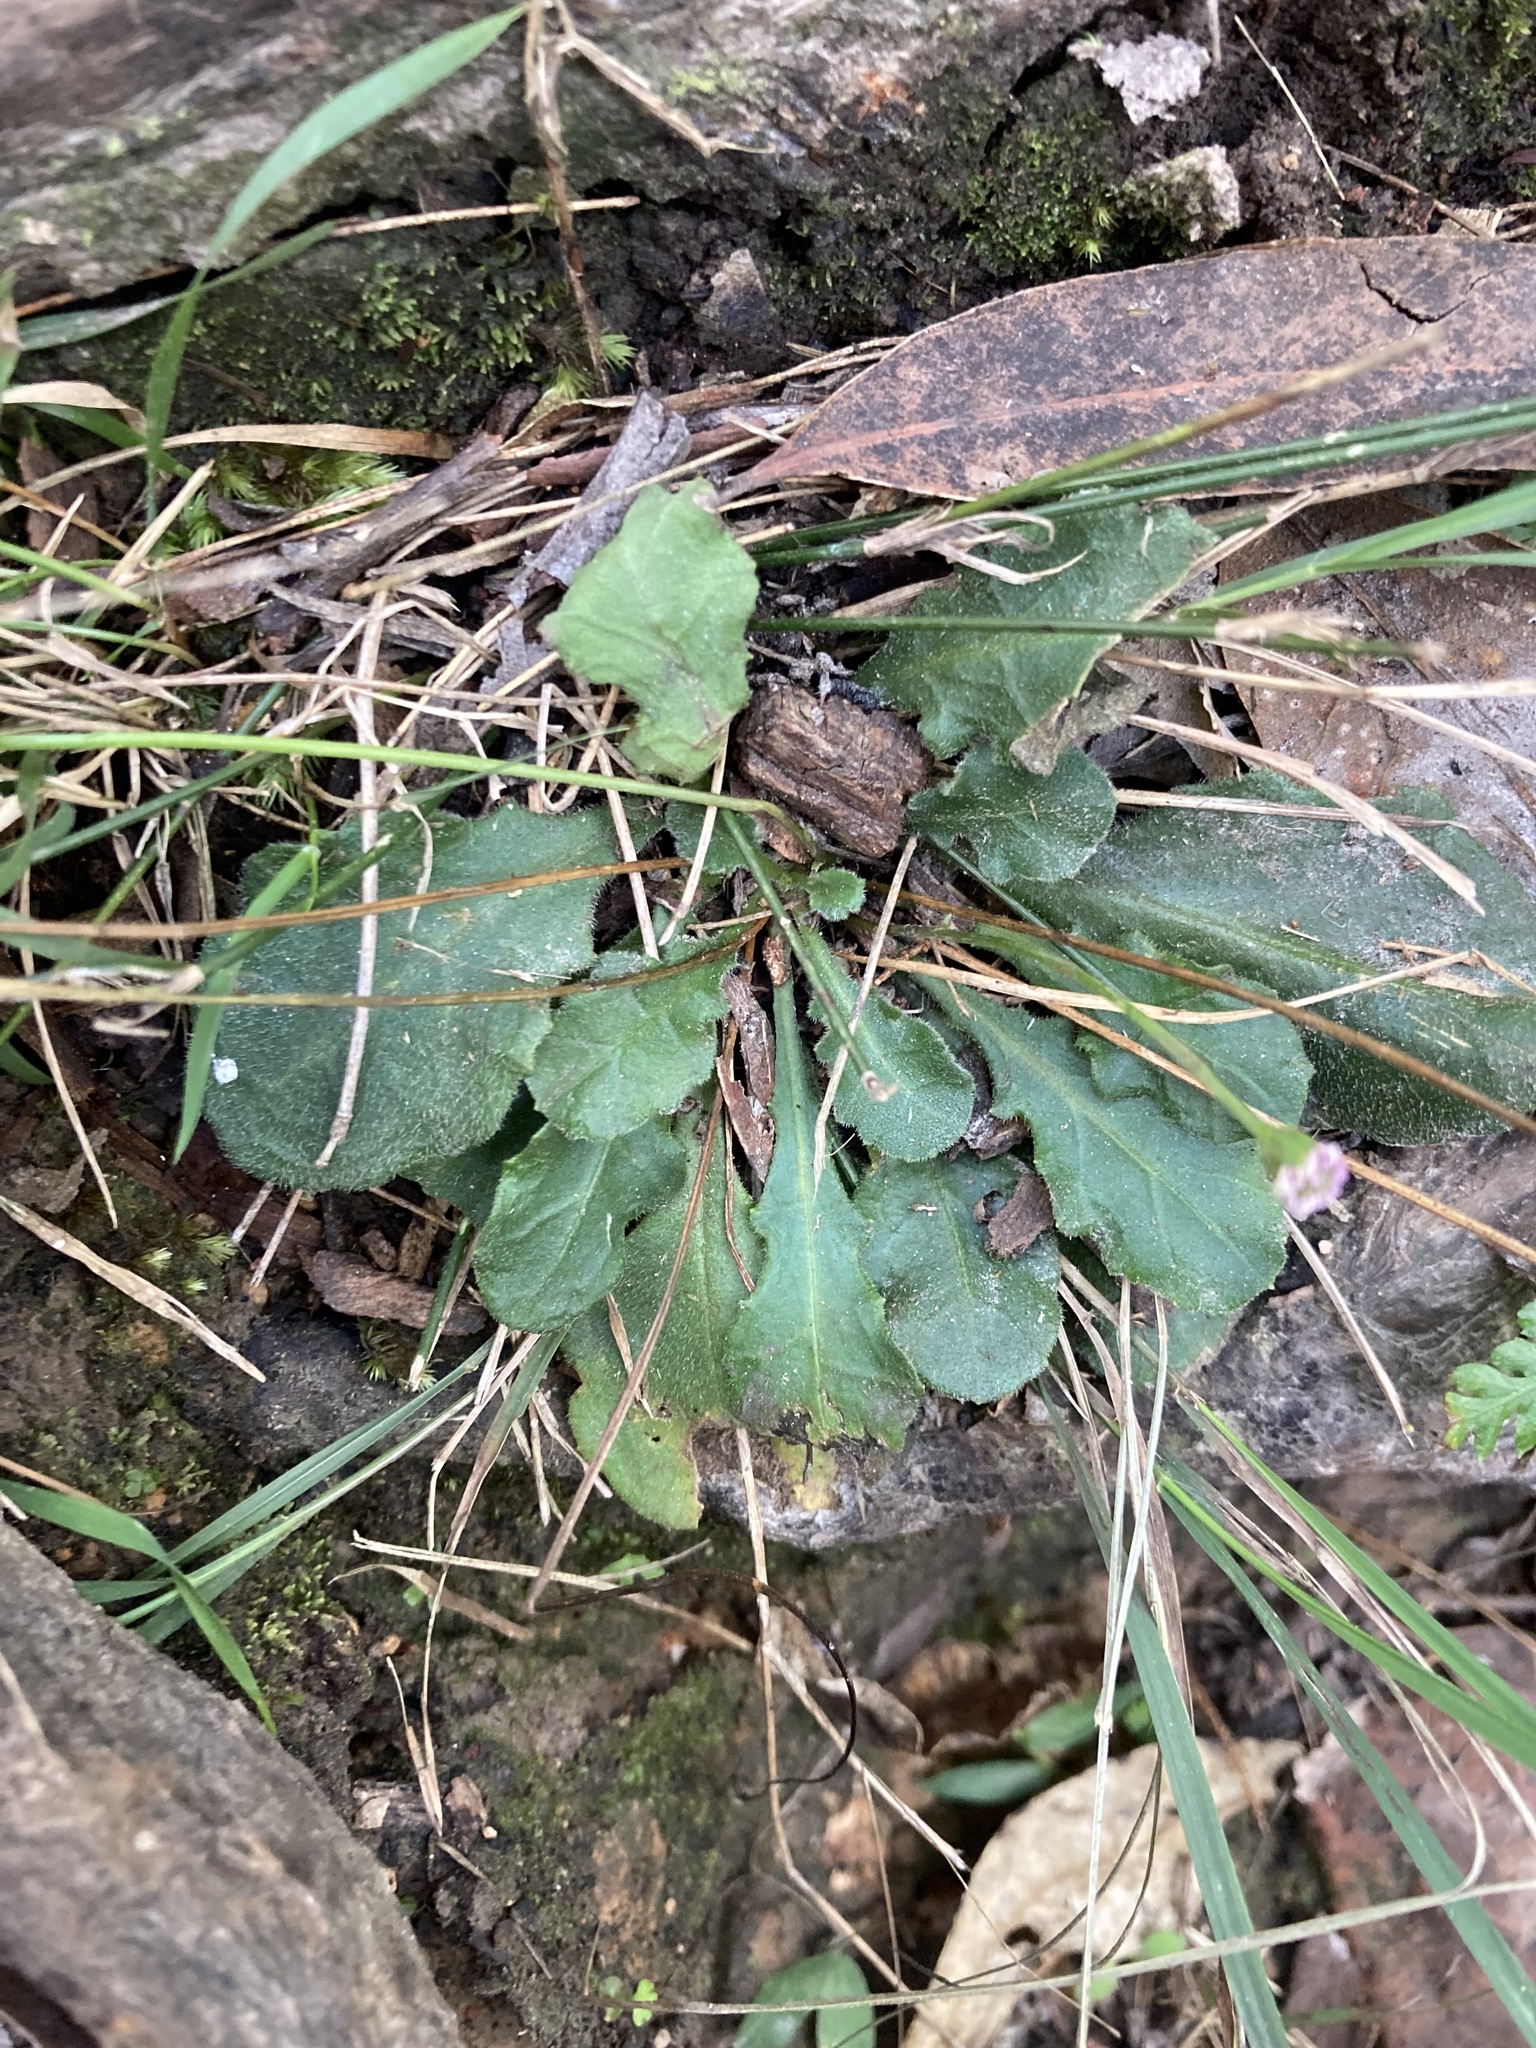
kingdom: Plantae
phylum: Tracheophyta
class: Magnoliopsida
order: Asterales
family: Asteraceae
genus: Lagenophora
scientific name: Lagenophora sublyrata ter
